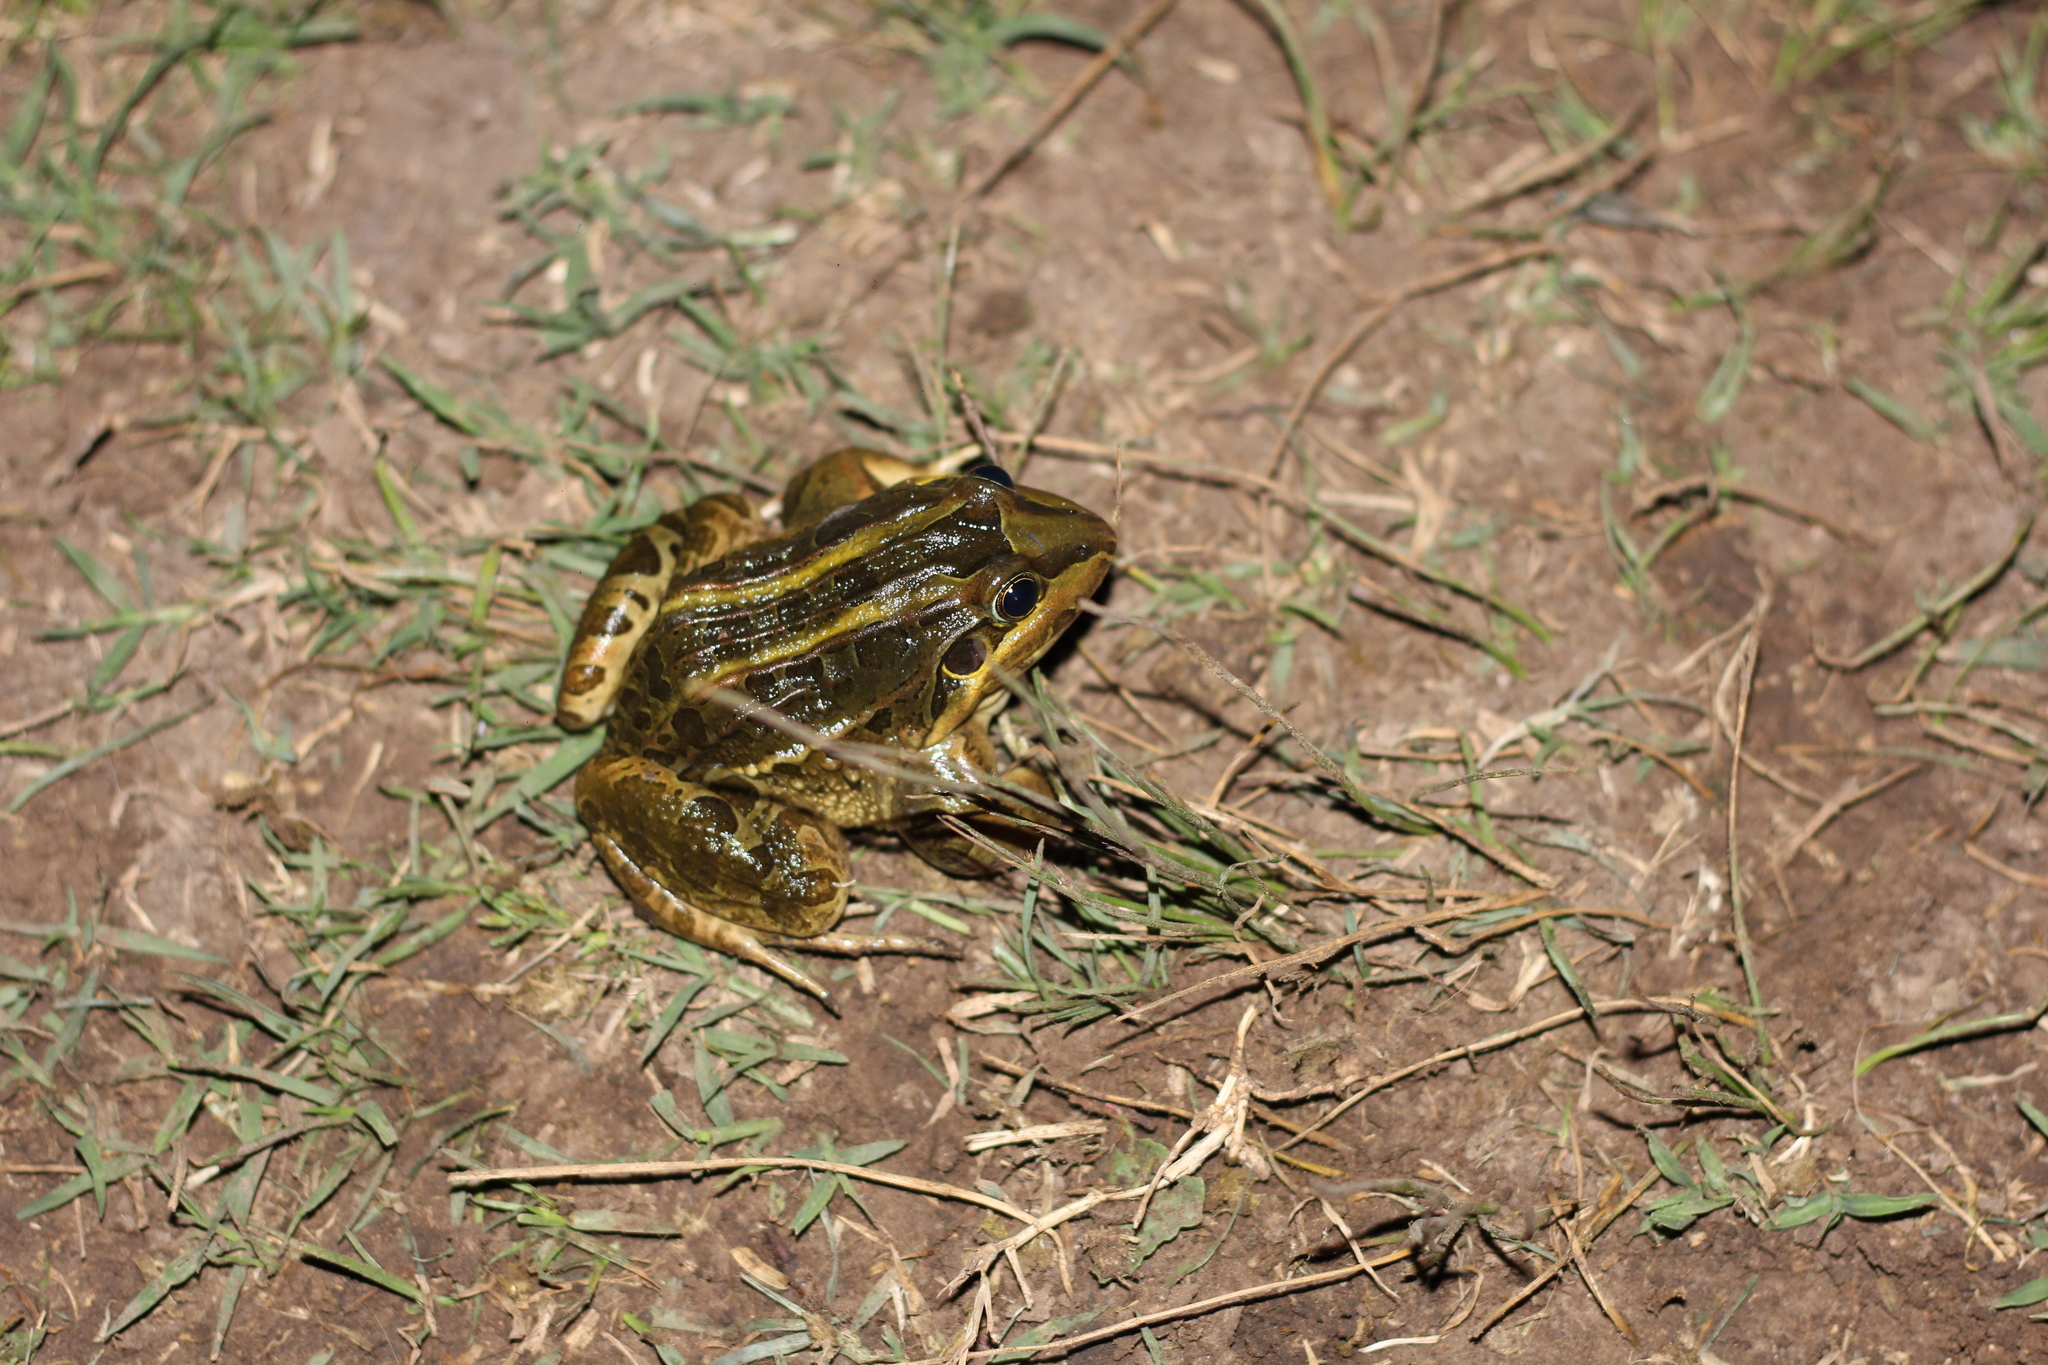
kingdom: Animalia
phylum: Chordata
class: Amphibia
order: Anura
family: Leptodactylidae
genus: Leptodactylus
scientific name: Leptodactylus luctator
